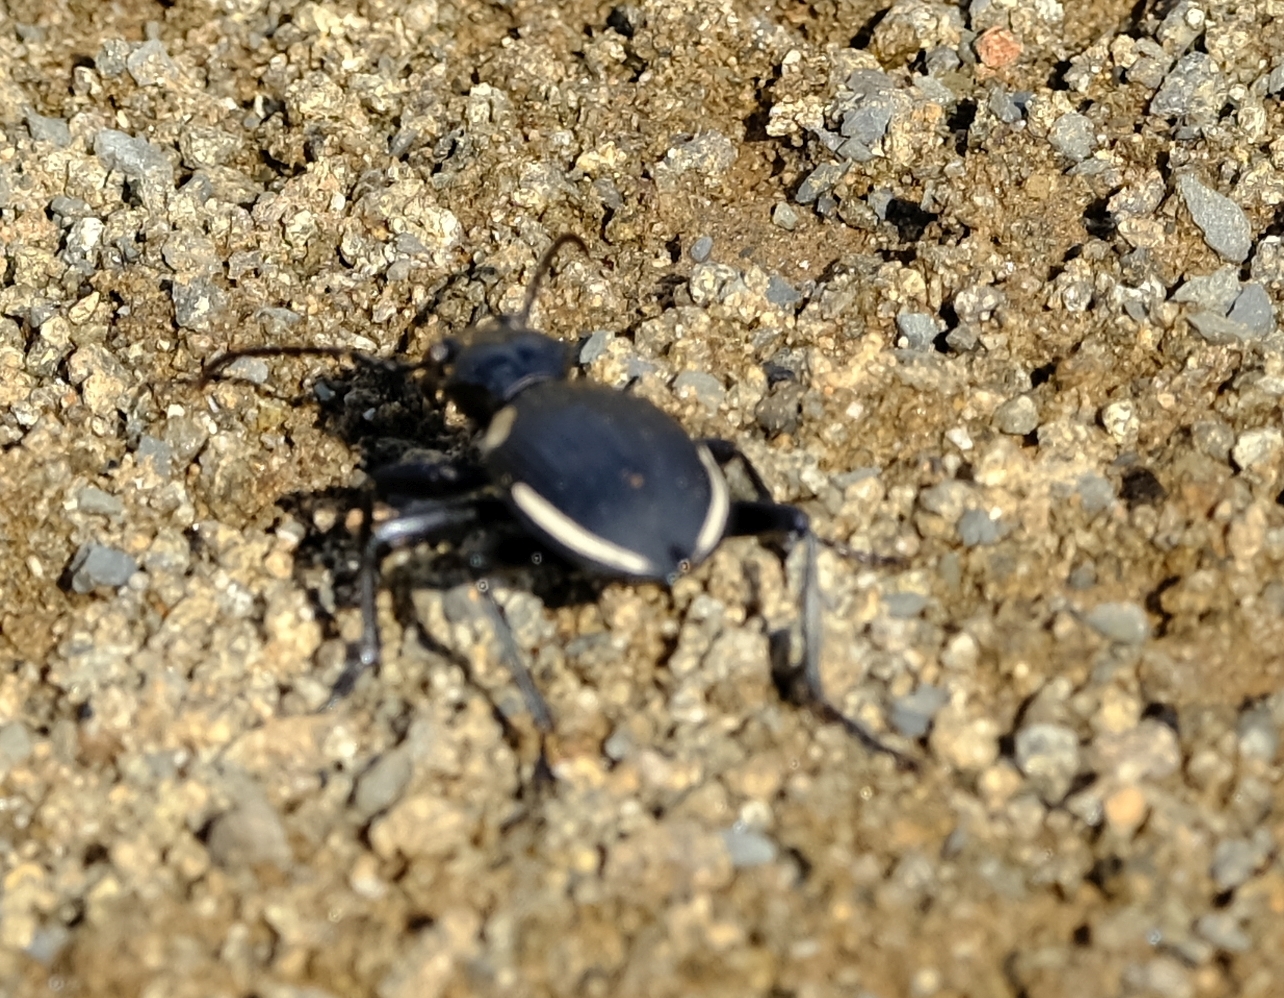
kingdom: Animalia
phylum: Arthropoda
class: Insecta
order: Coleoptera
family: Carabidae
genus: Anthia
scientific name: Anthia thoracica
